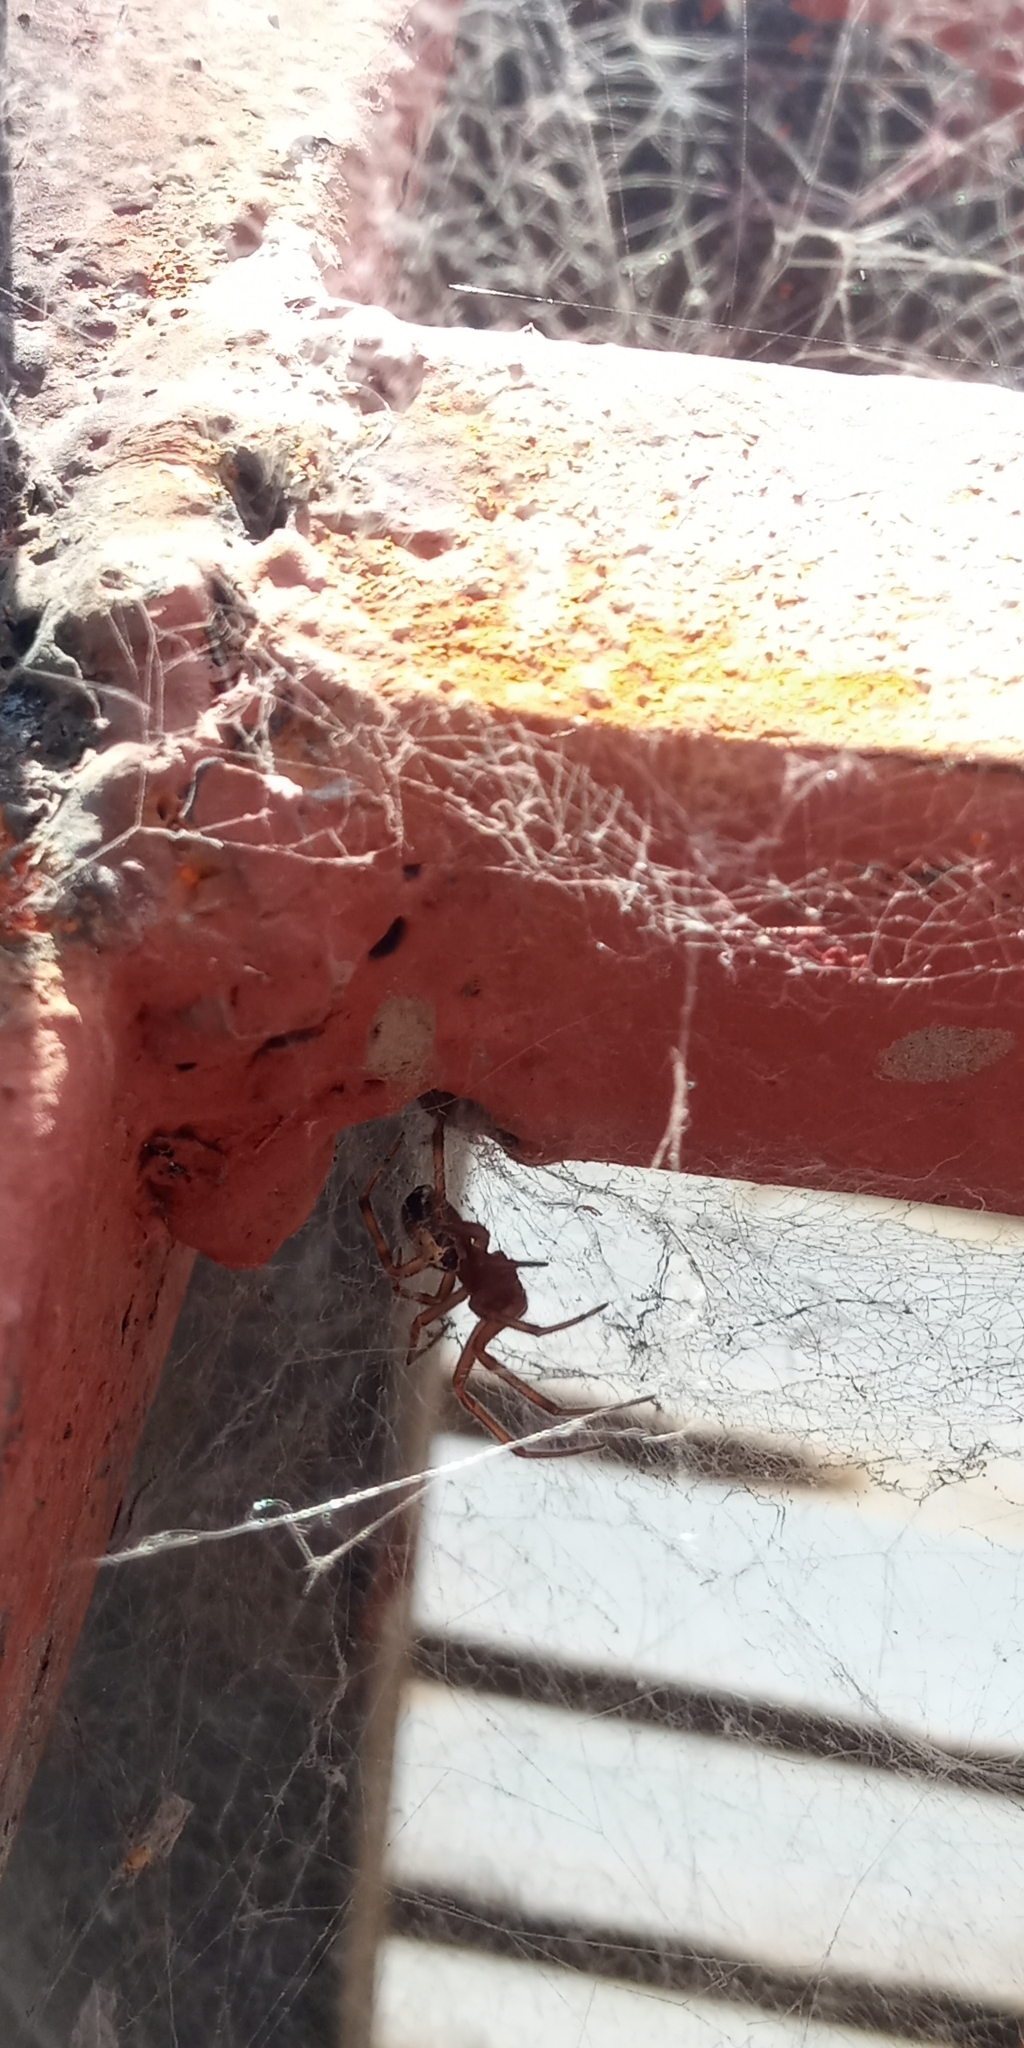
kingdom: Animalia
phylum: Arthropoda
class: Arachnida
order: Araneae
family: Theridiidae
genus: Steatoda
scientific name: Steatoda nobilis
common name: Cobweb weaver
